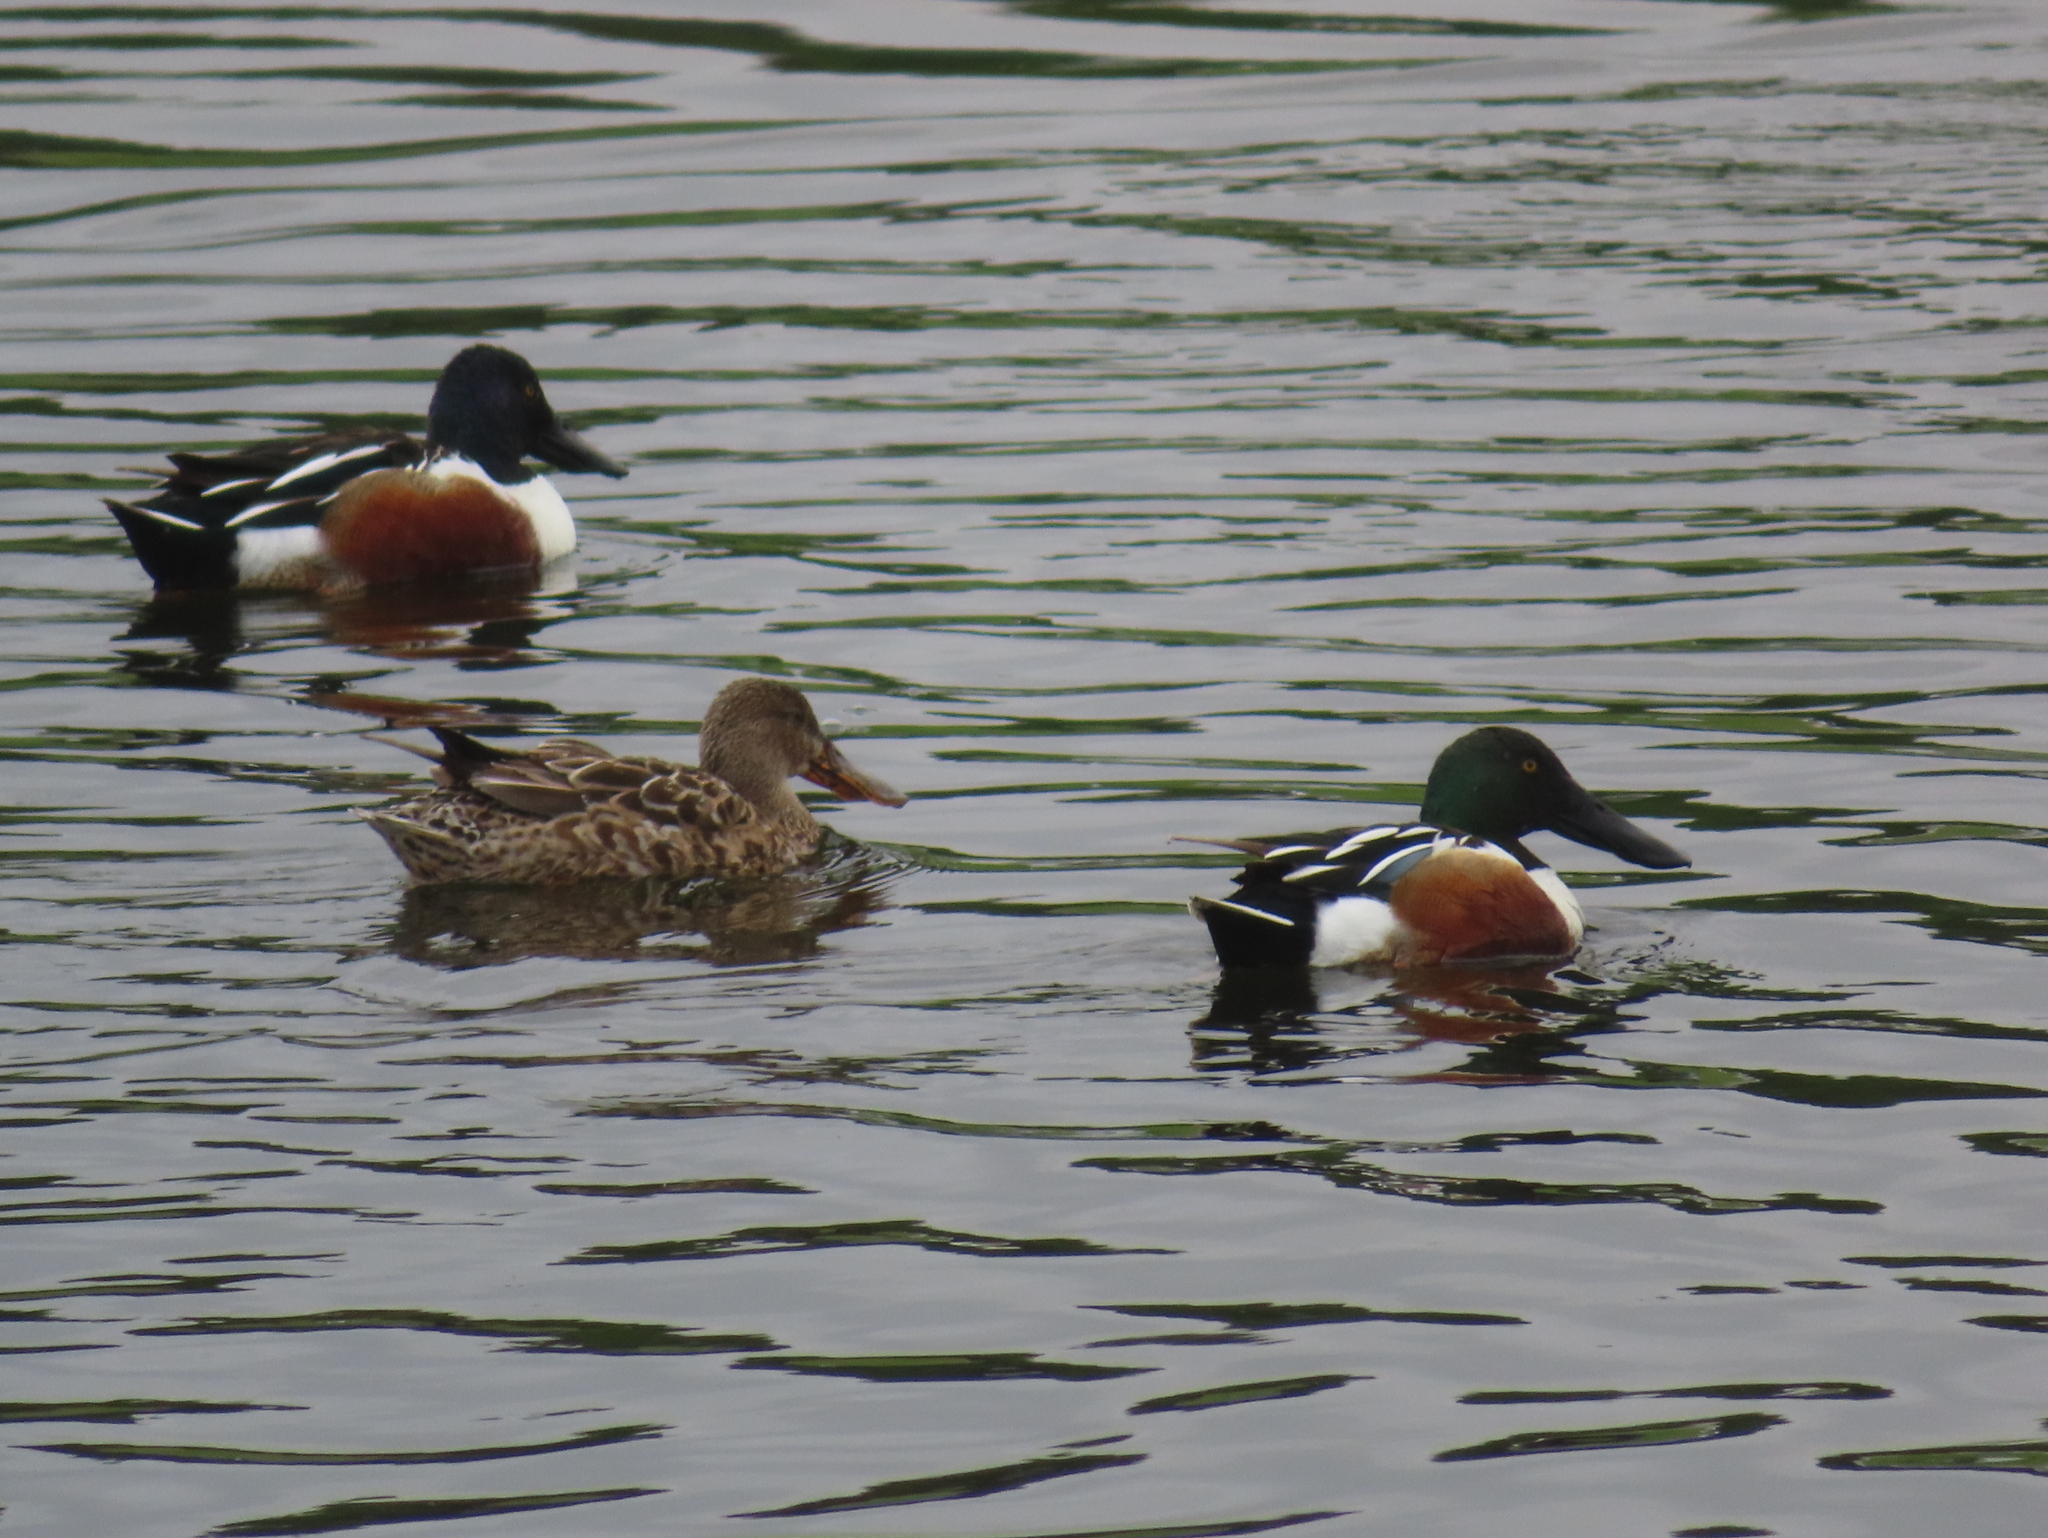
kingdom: Animalia
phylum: Chordata
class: Aves
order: Anseriformes
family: Anatidae
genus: Spatula
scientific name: Spatula clypeata
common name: Northern shoveler
